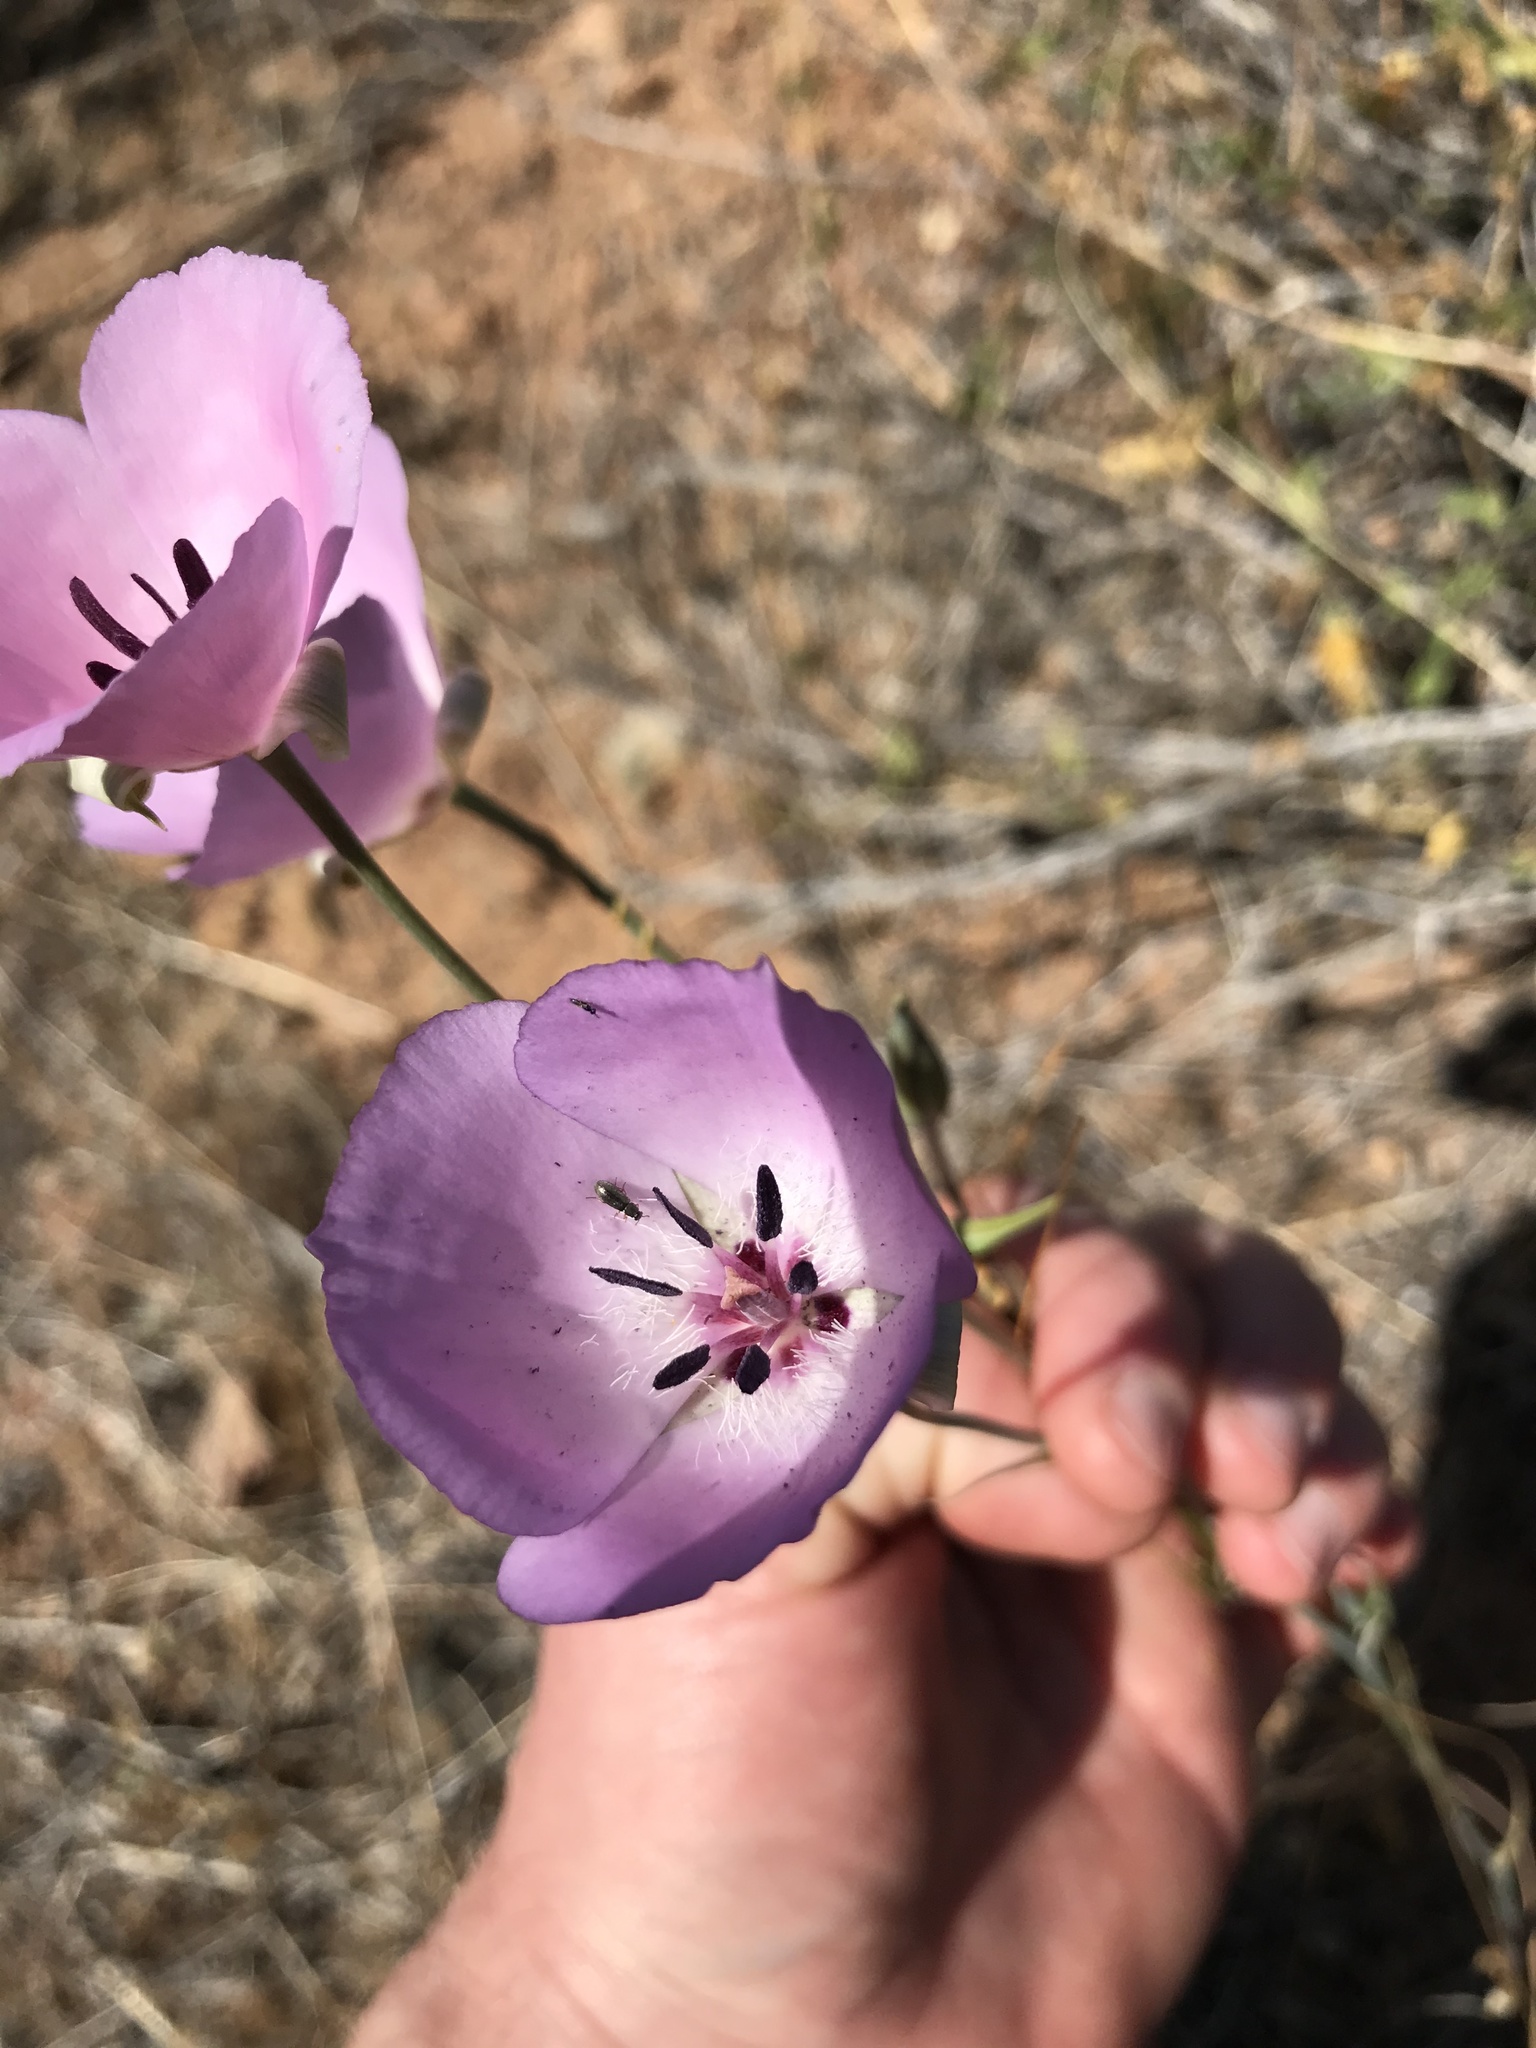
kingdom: Plantae
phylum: Tracheophyta
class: Liliopsida
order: Liliales
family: Liliaceae
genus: Calochortus
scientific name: Calochortus splendens
